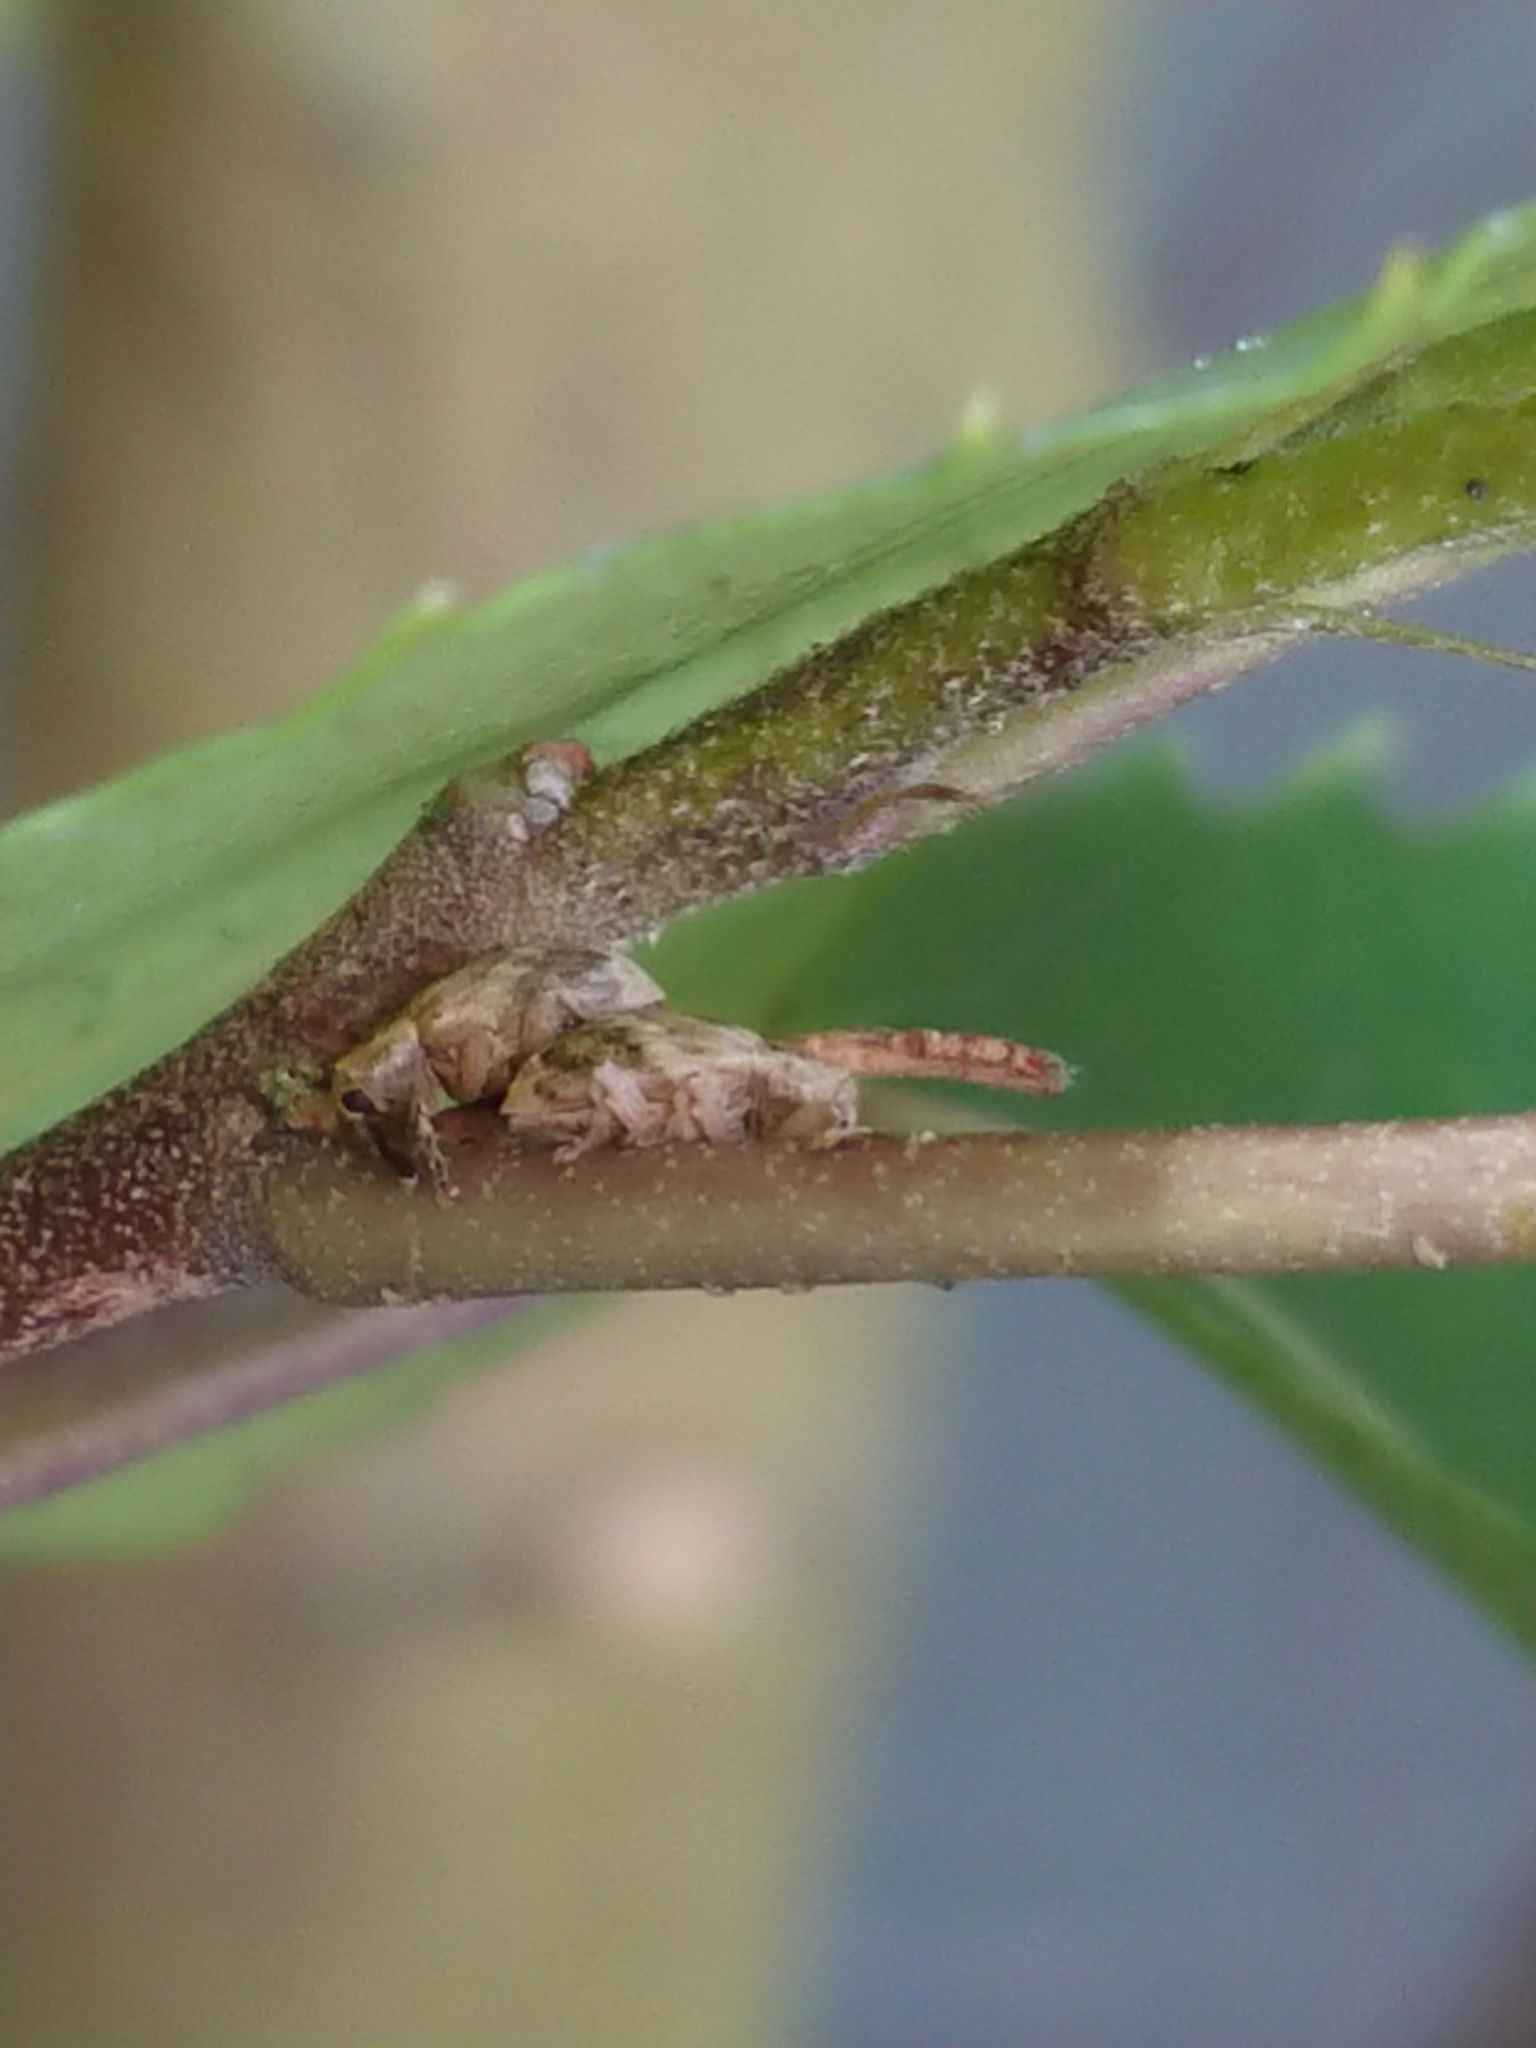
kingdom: Animalia
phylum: Arthropoda
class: Insecta
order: Coleoptera
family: Curculionidae
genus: Aneuma
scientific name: Aneuma compta
